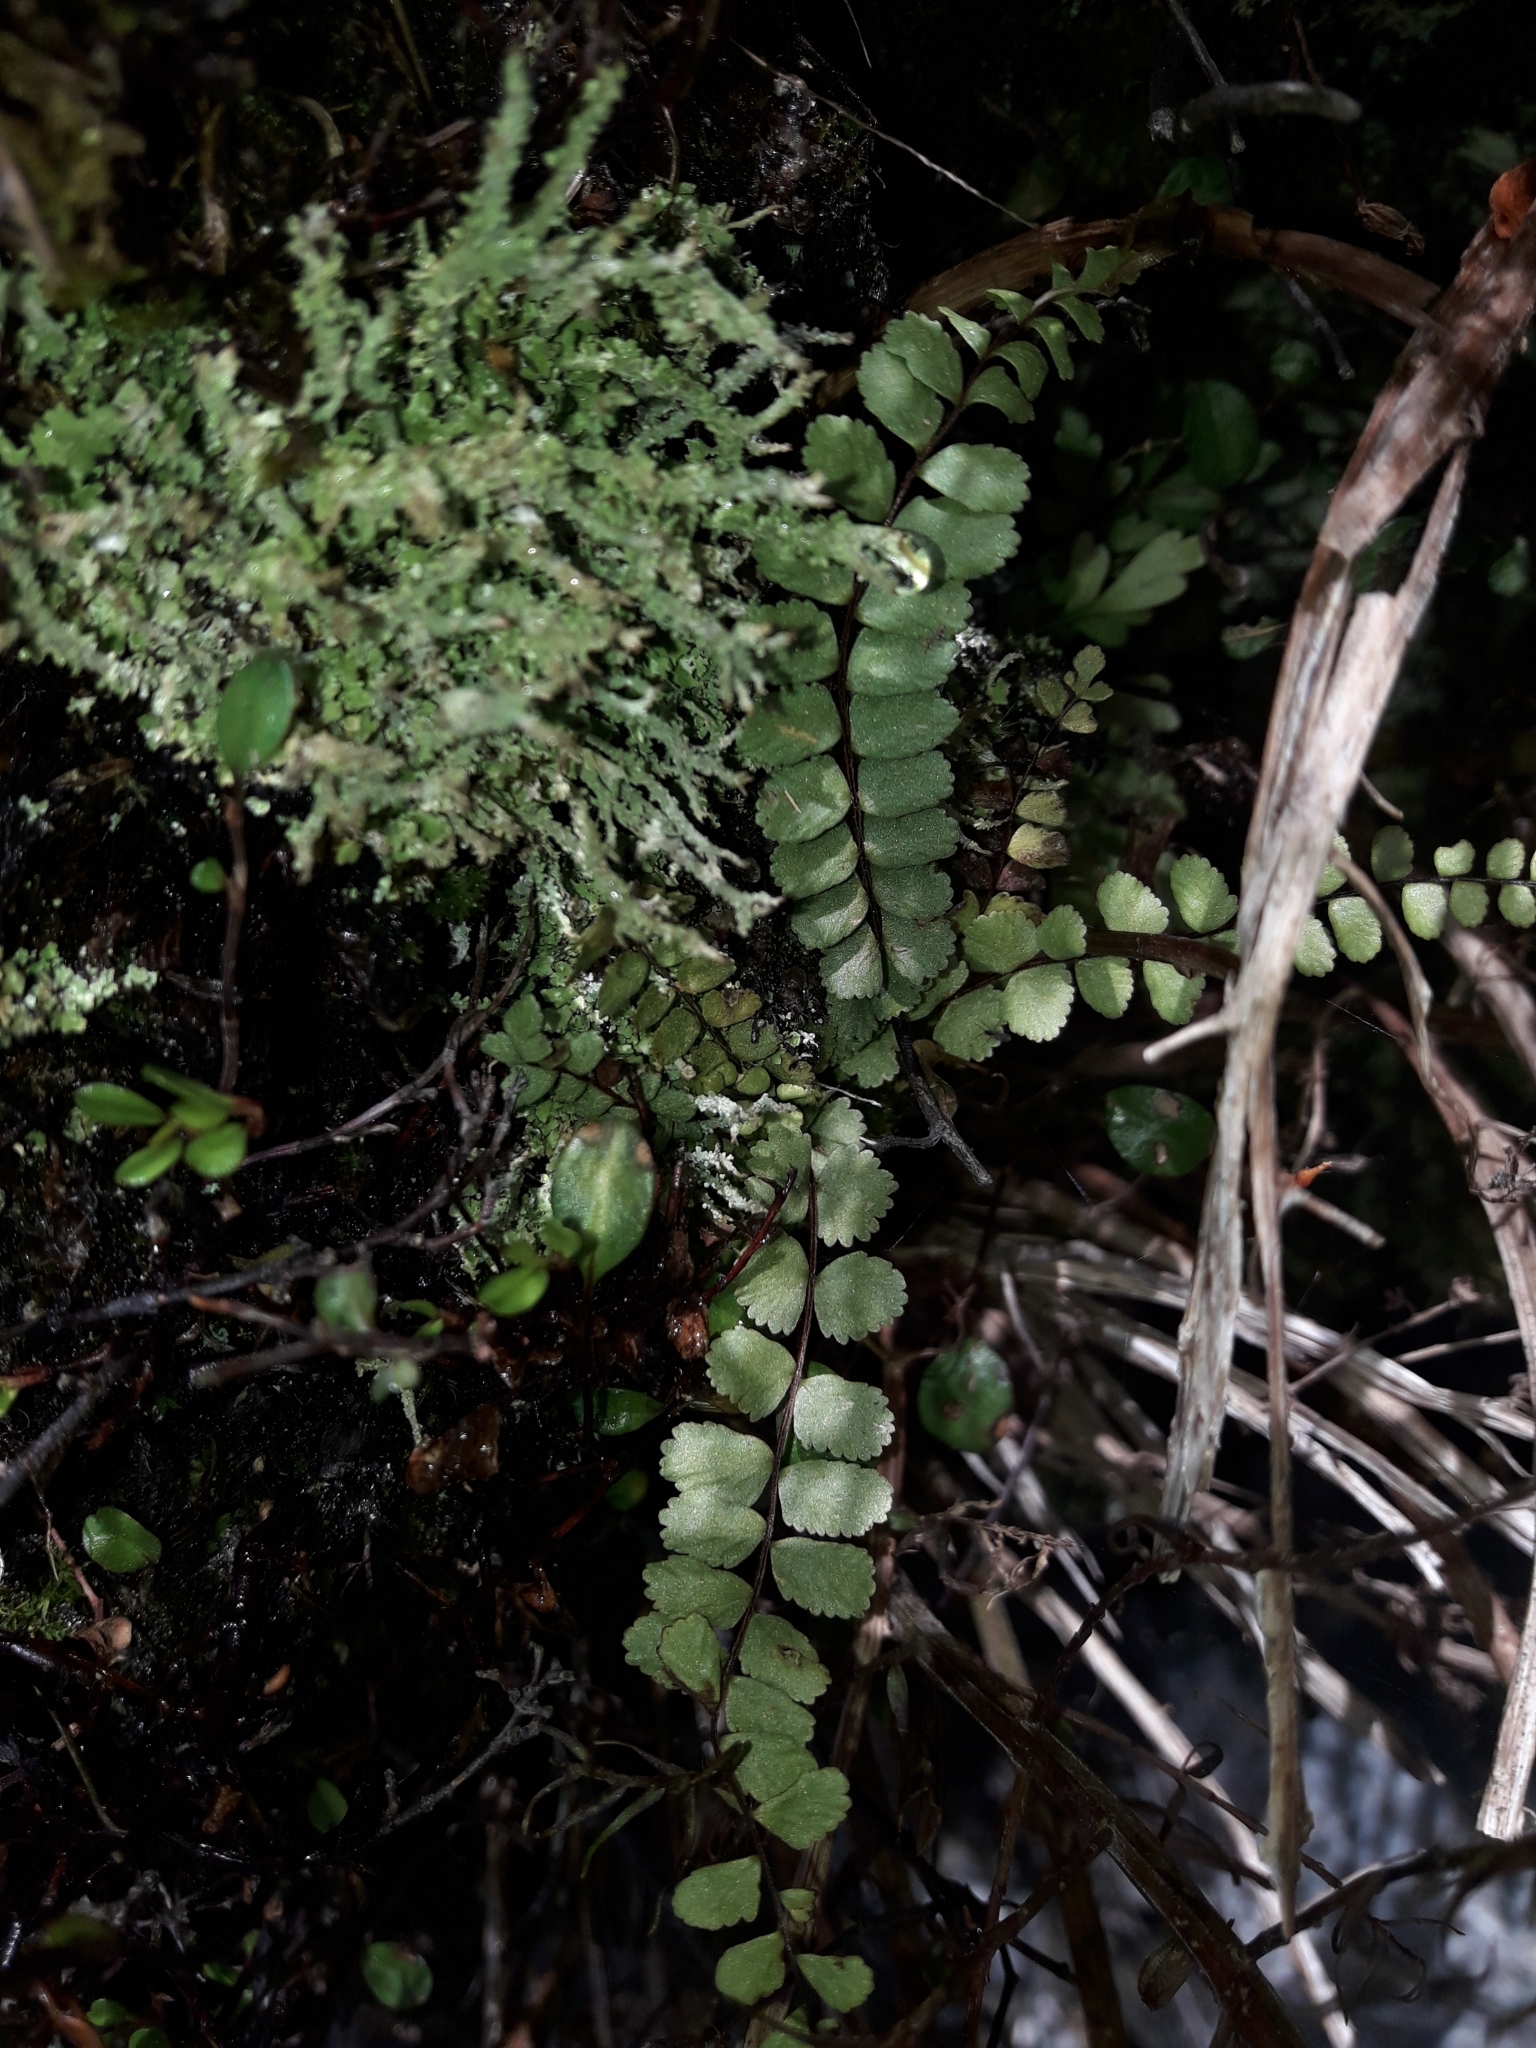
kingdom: Plantae
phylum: Tracheophyta
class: Polypodiopsida
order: Polypodiales
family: Aspleniaceae
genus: Asplenium
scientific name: Asplenium trichomanes
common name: Maidenhair spleenwort
